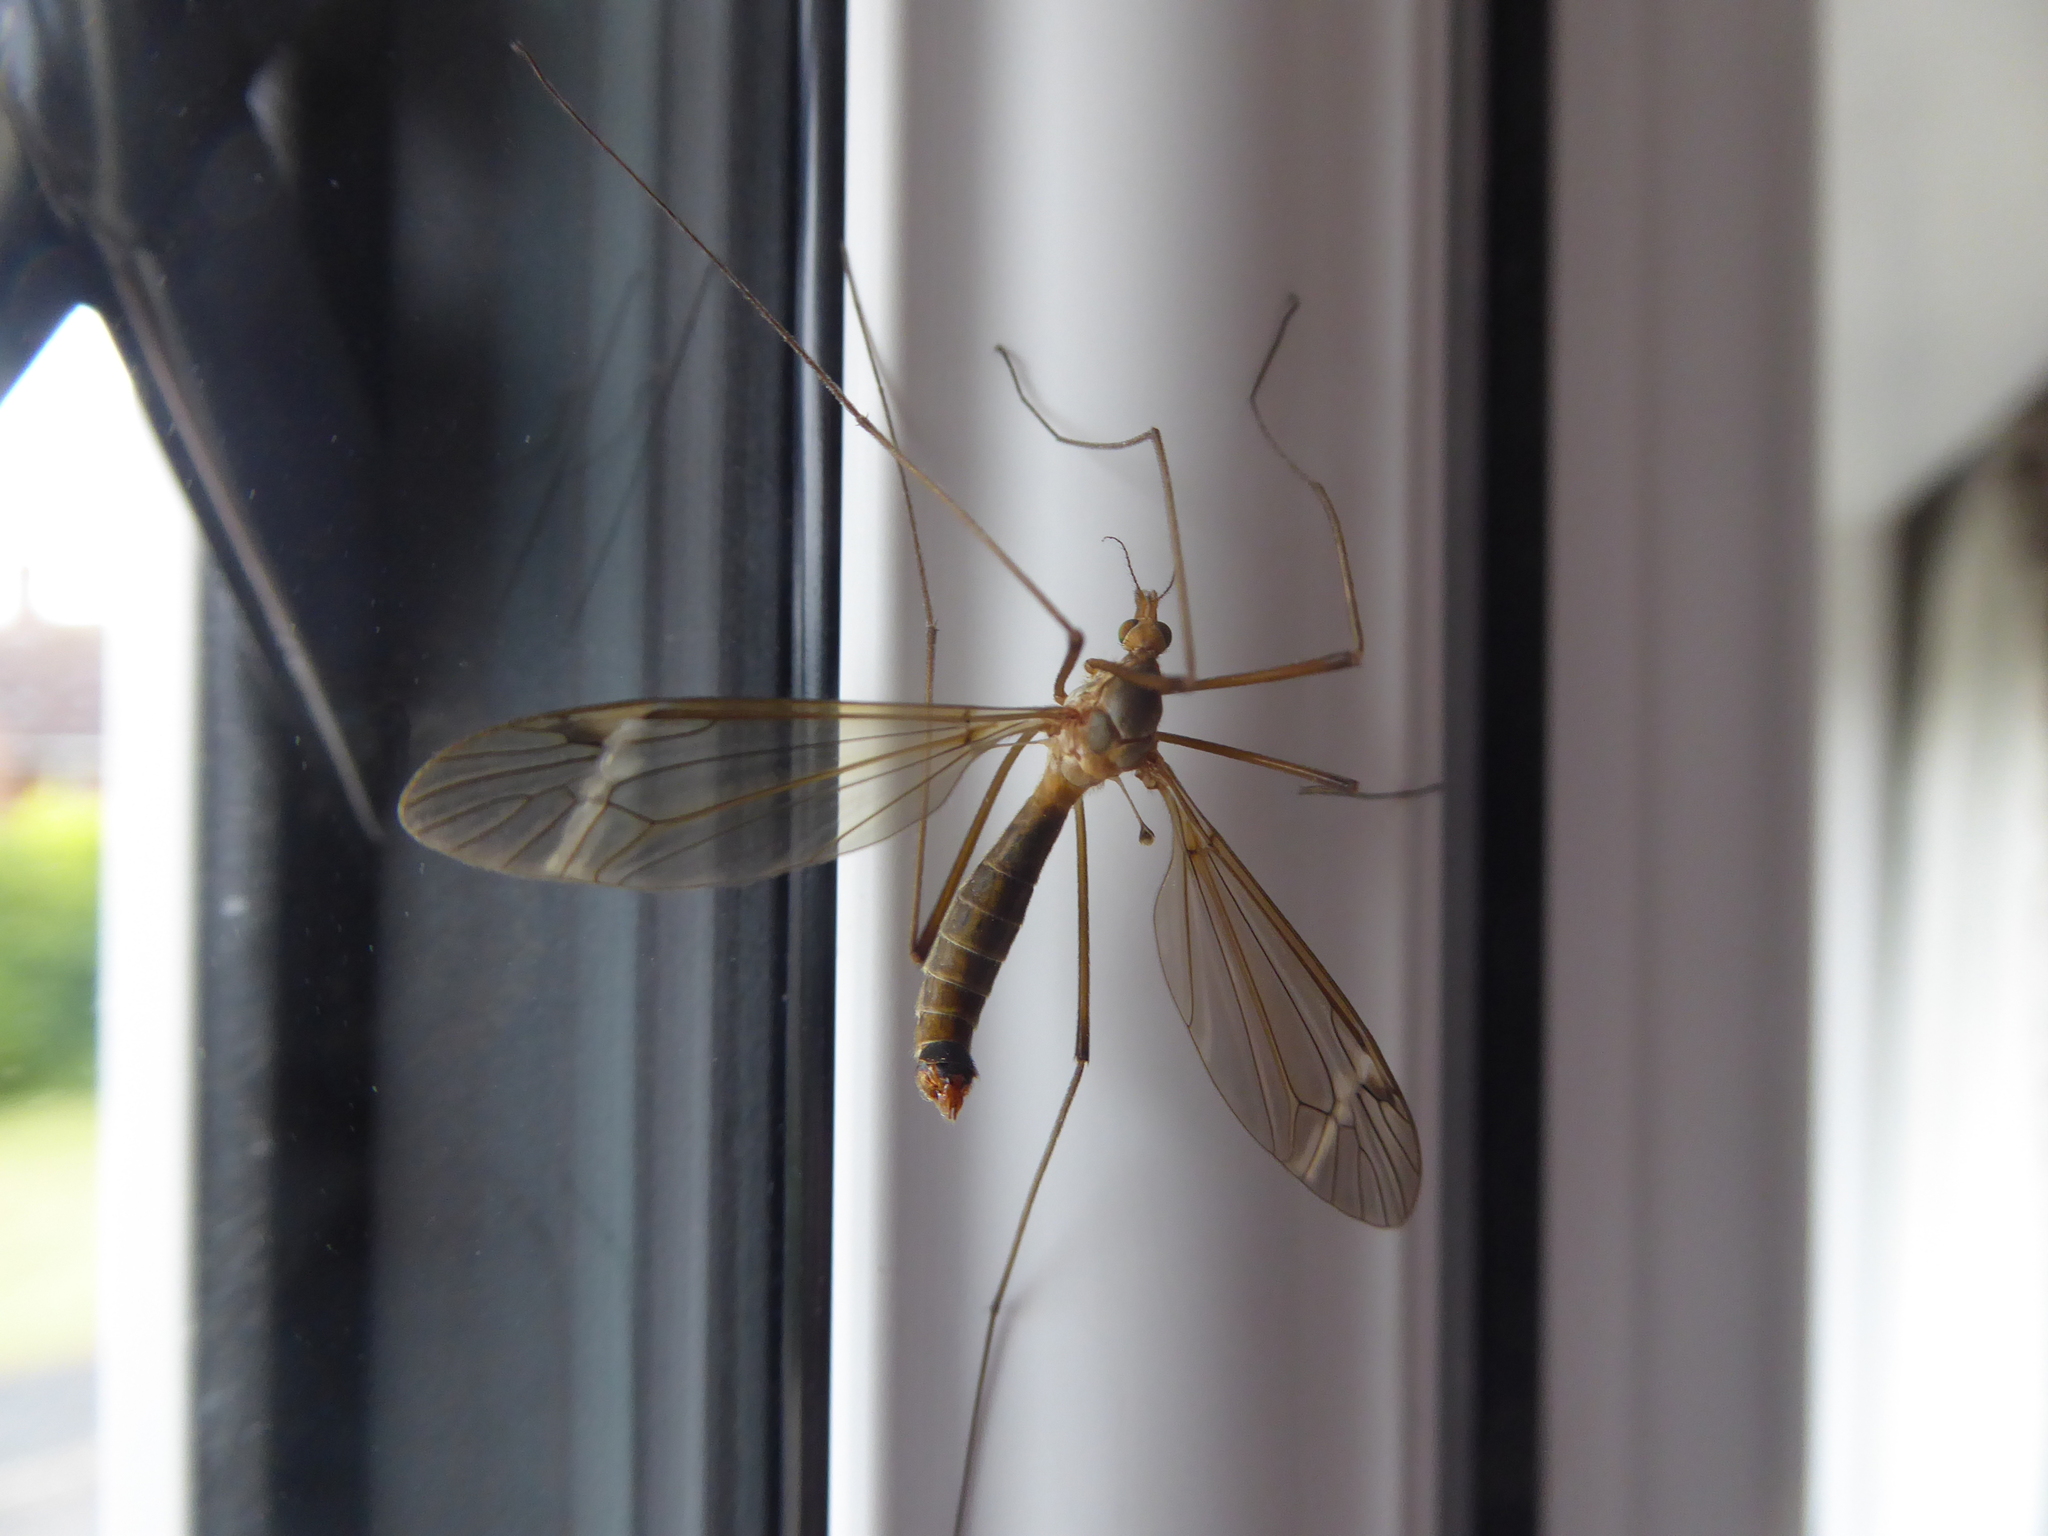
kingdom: Animalia
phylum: Arthropoda
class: Insecta
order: Diptera
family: Tipulidae
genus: Tipula
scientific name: Tipula fascipennis
